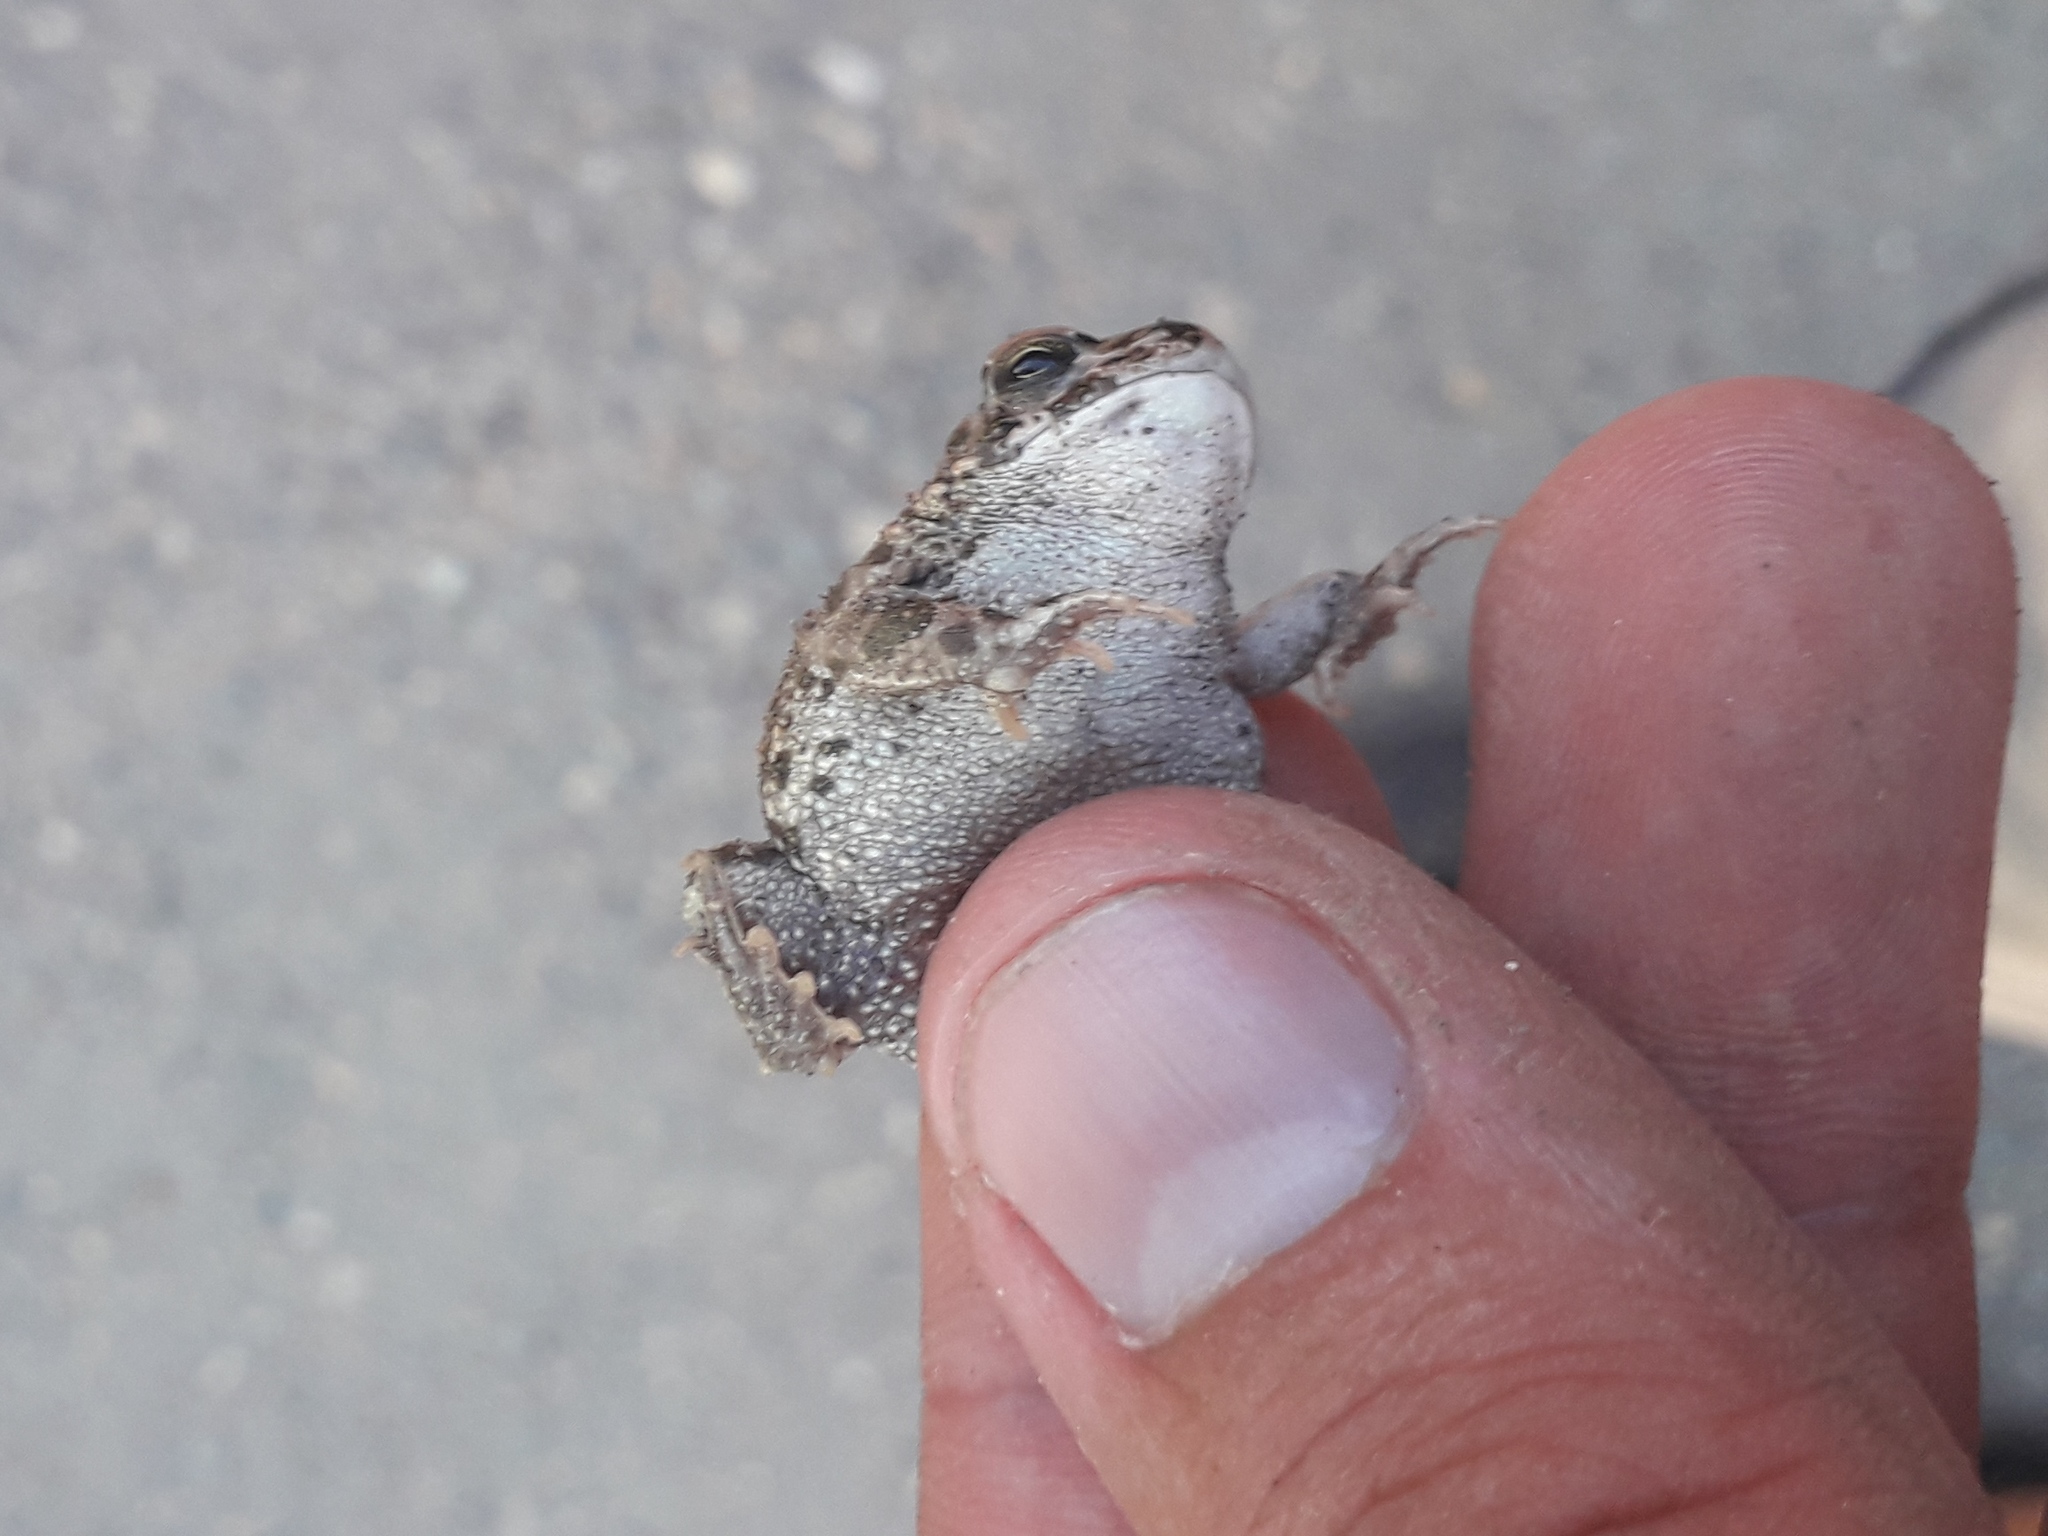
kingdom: Animalia
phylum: Chordata
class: Amphibia
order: Anura
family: Bufonidae
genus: Bufotes
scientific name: Bufotes viridis
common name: European green toad
